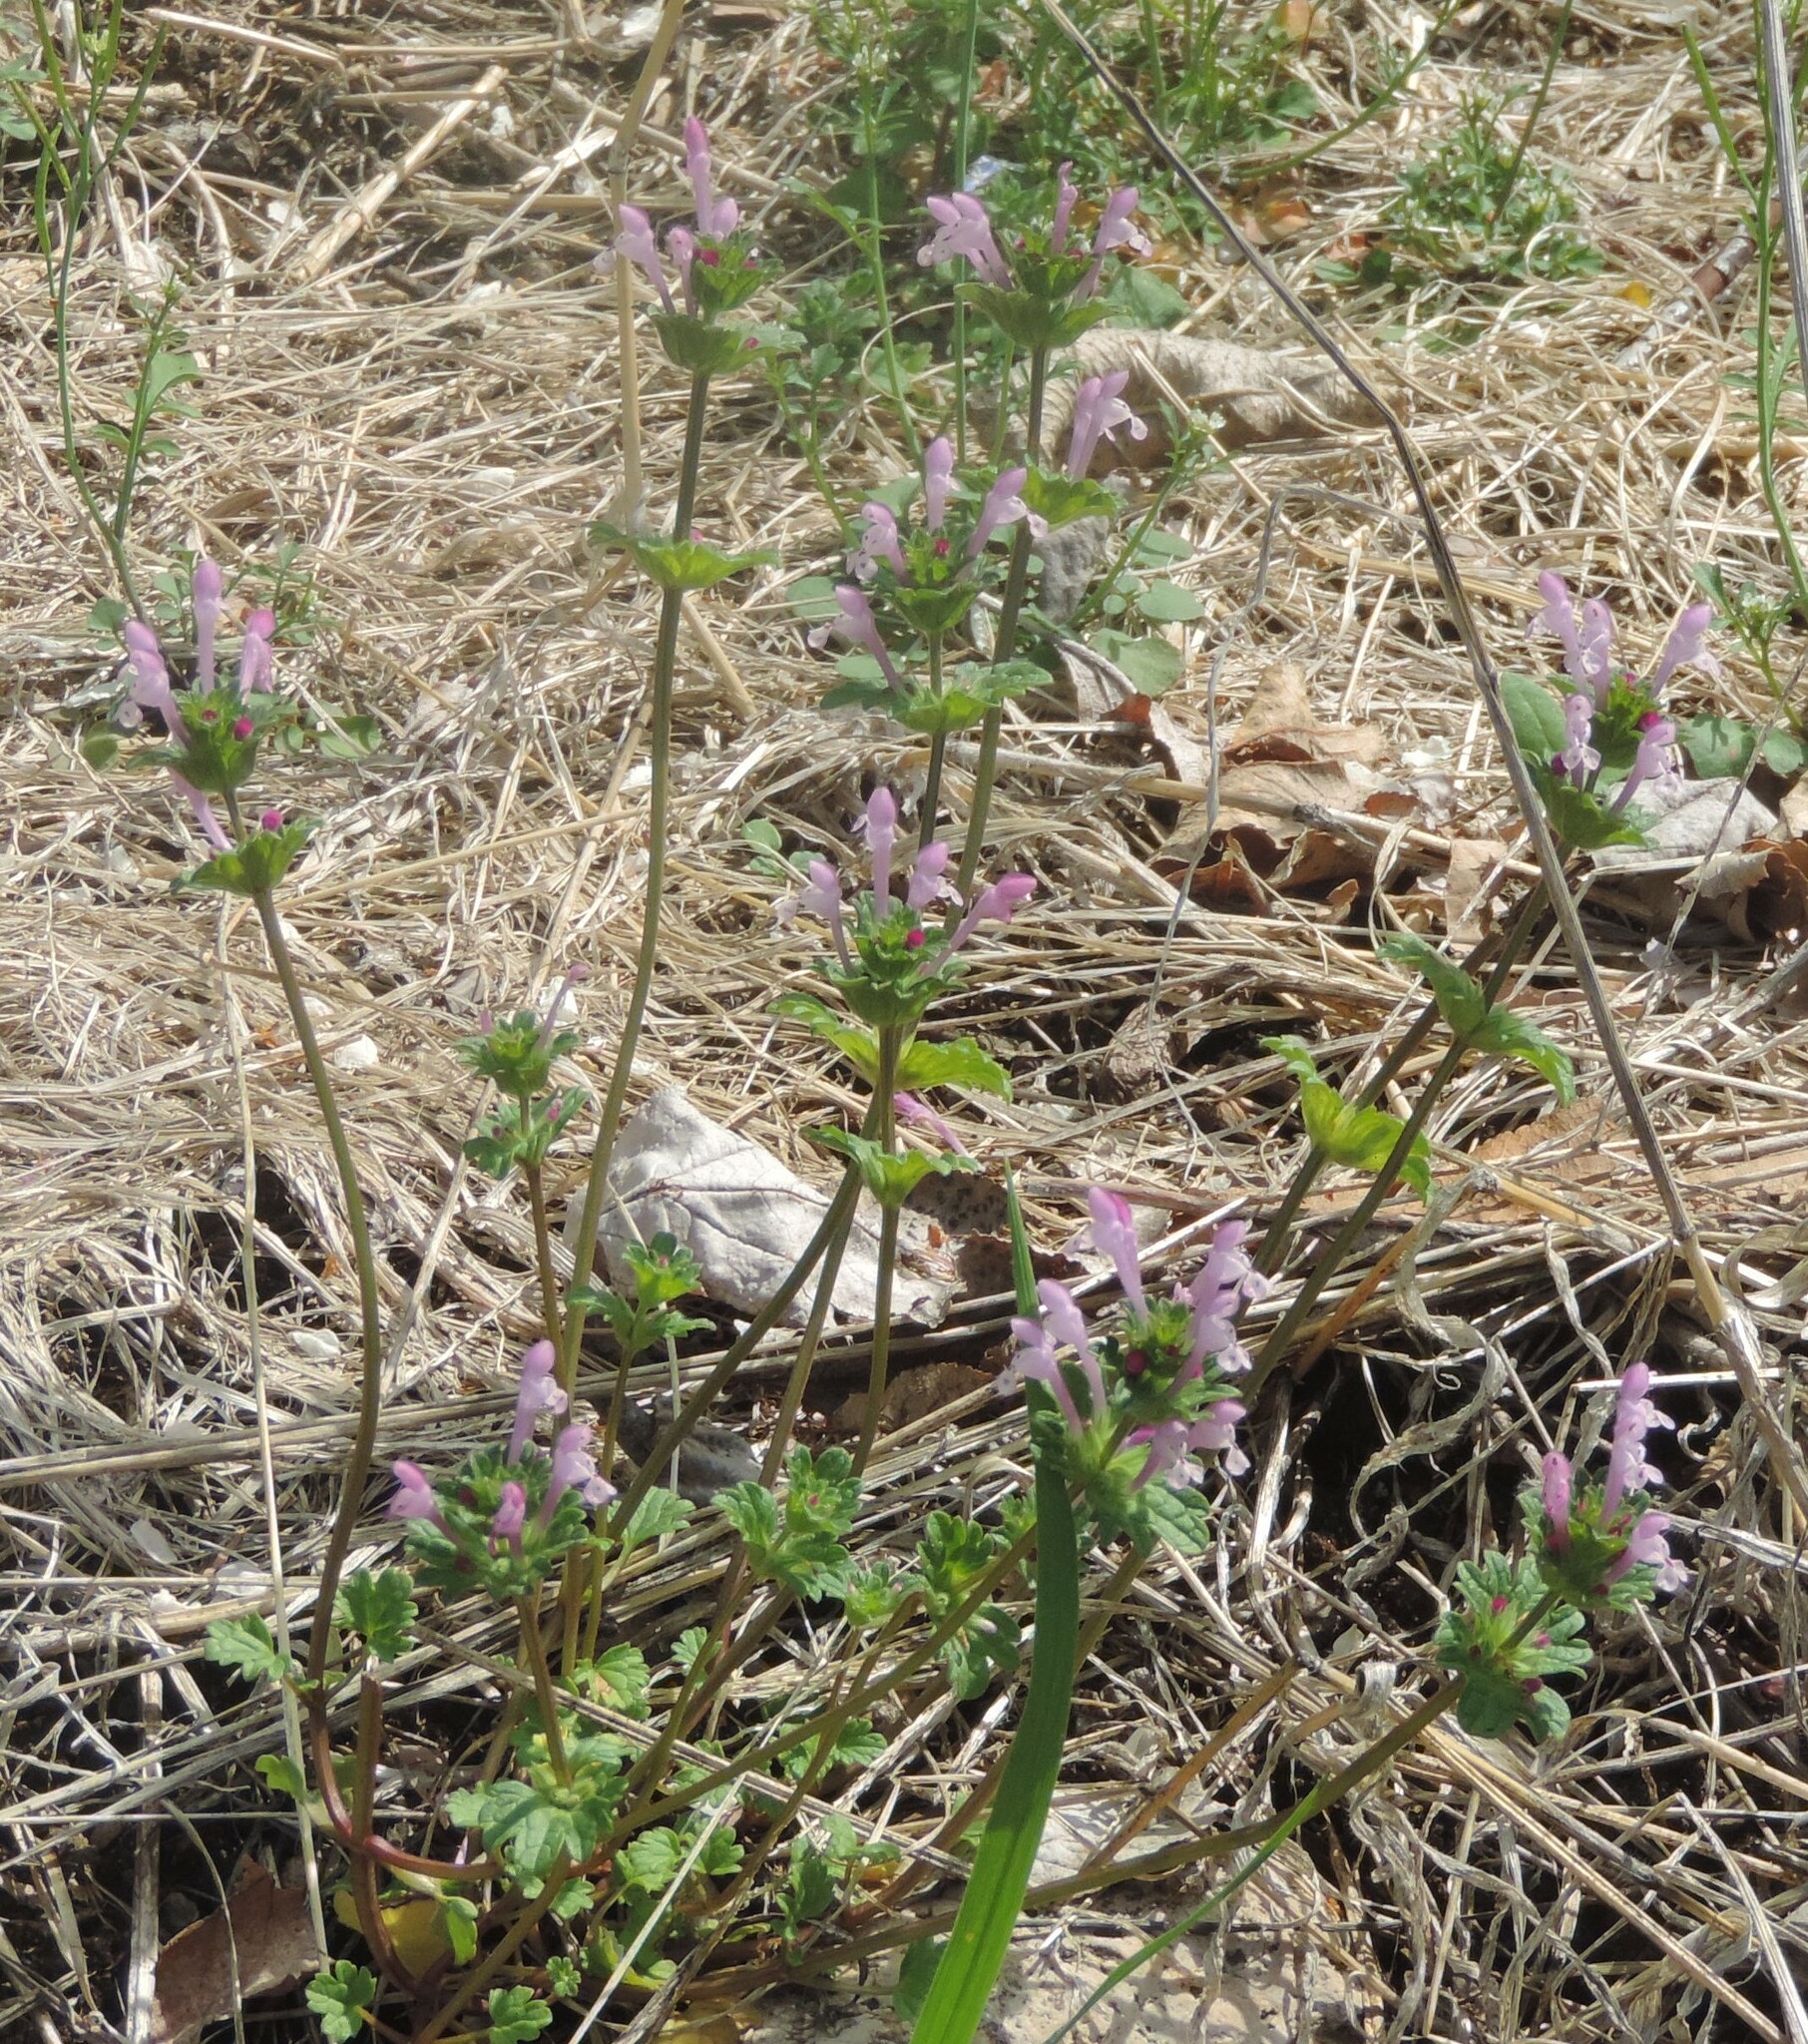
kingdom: Plantae
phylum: Tracheophyta
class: Magnoliopsida
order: Lamiales
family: Lamiaceae
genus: Lamium
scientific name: Lamium amplexicaule
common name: Henbit dead-nettle
